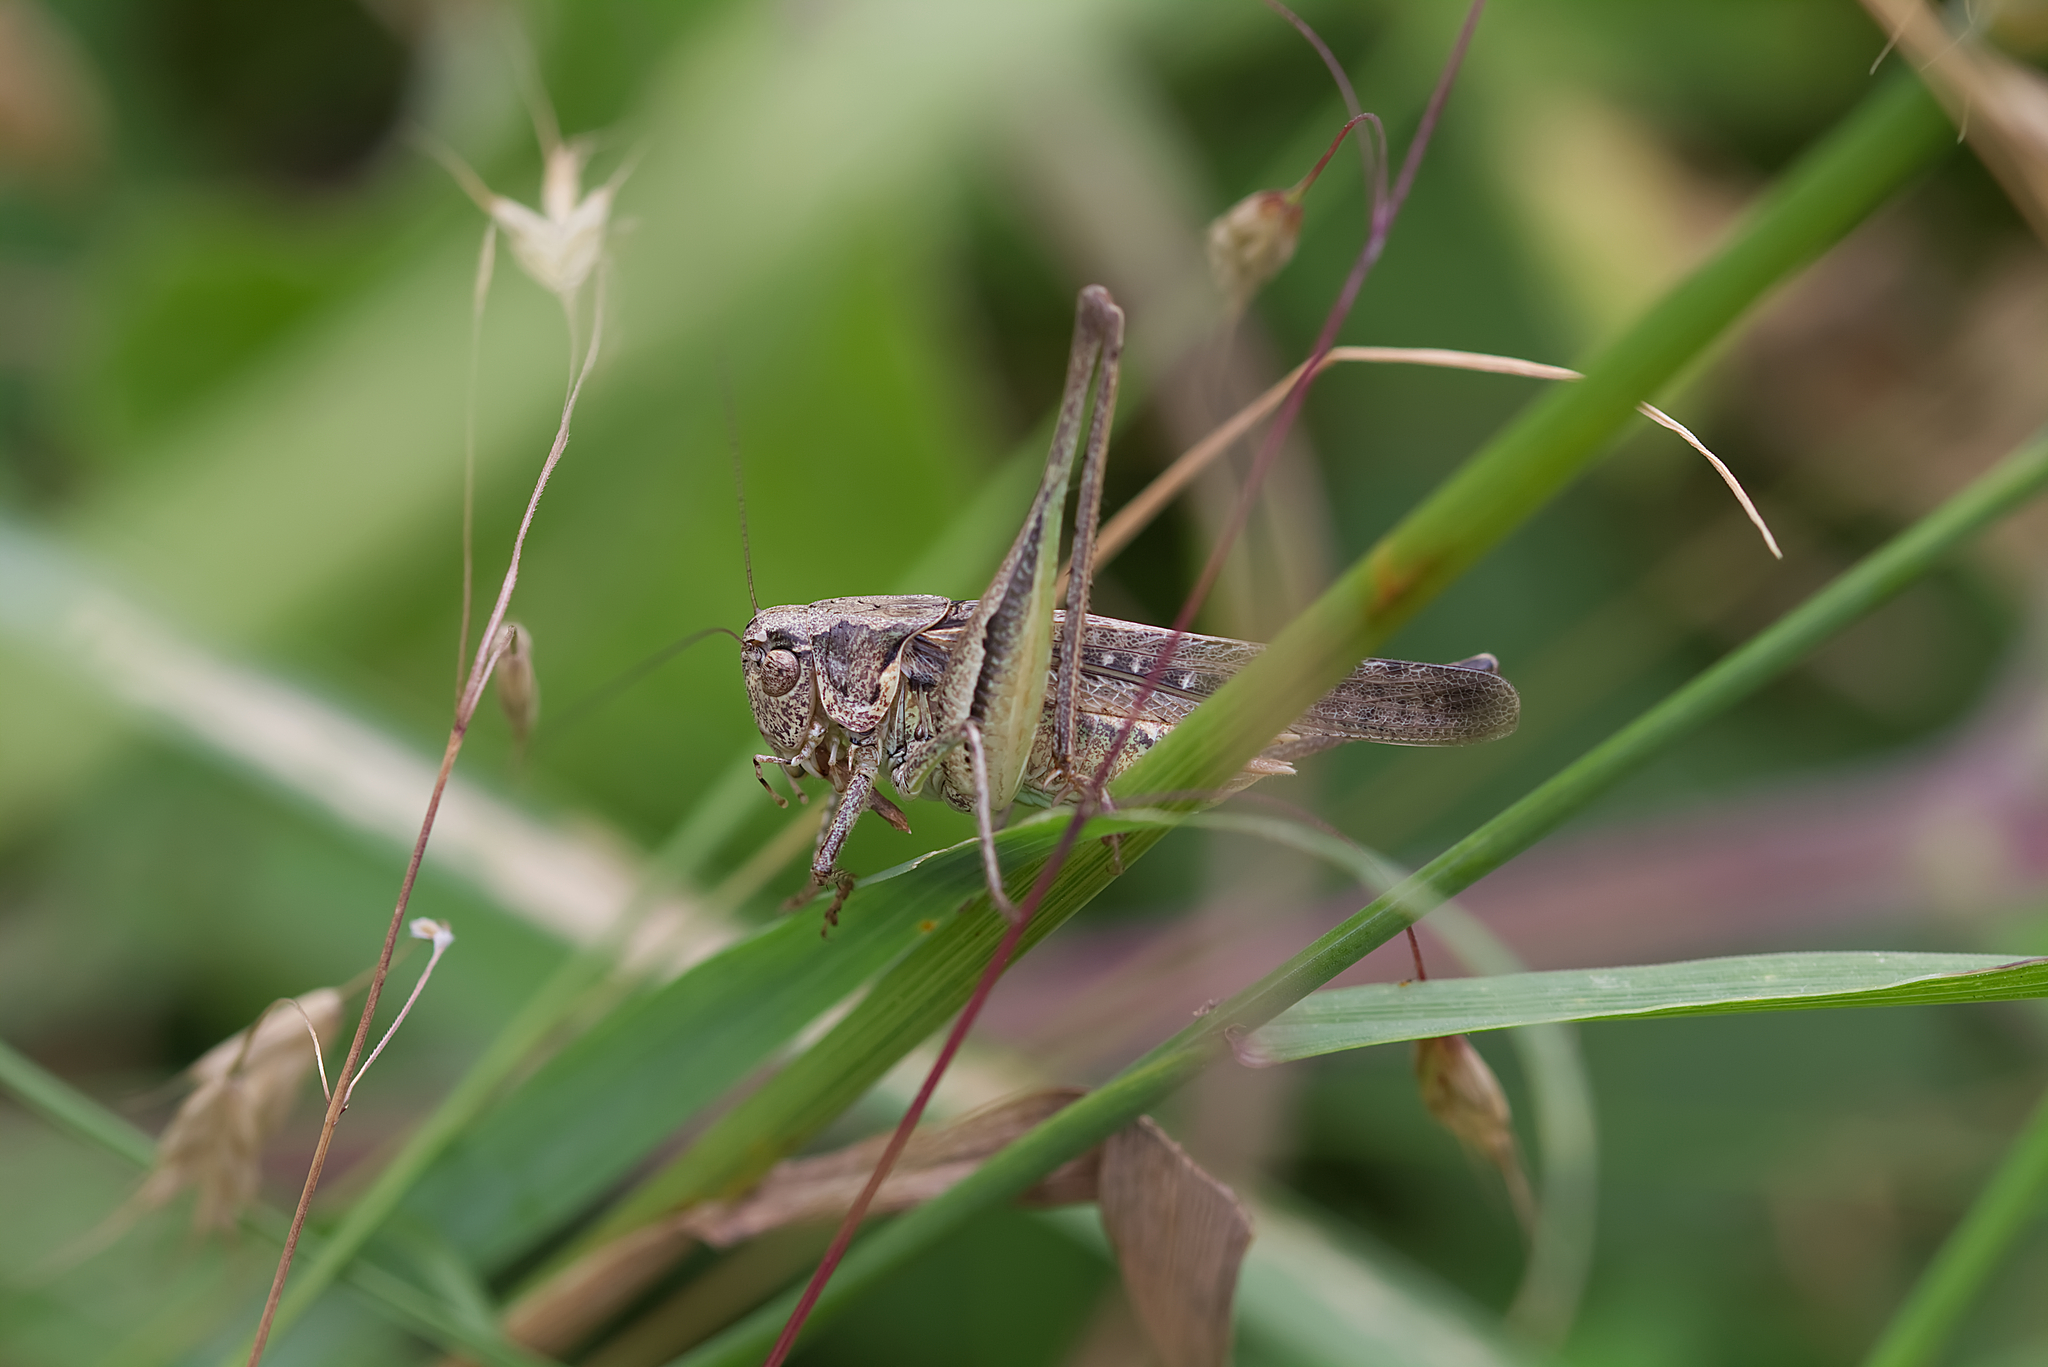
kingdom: Animalia
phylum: Arthropoda
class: Insecta
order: Orthoptera
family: Tettigoniidae
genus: Platycleis
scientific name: Platycleis grisea
